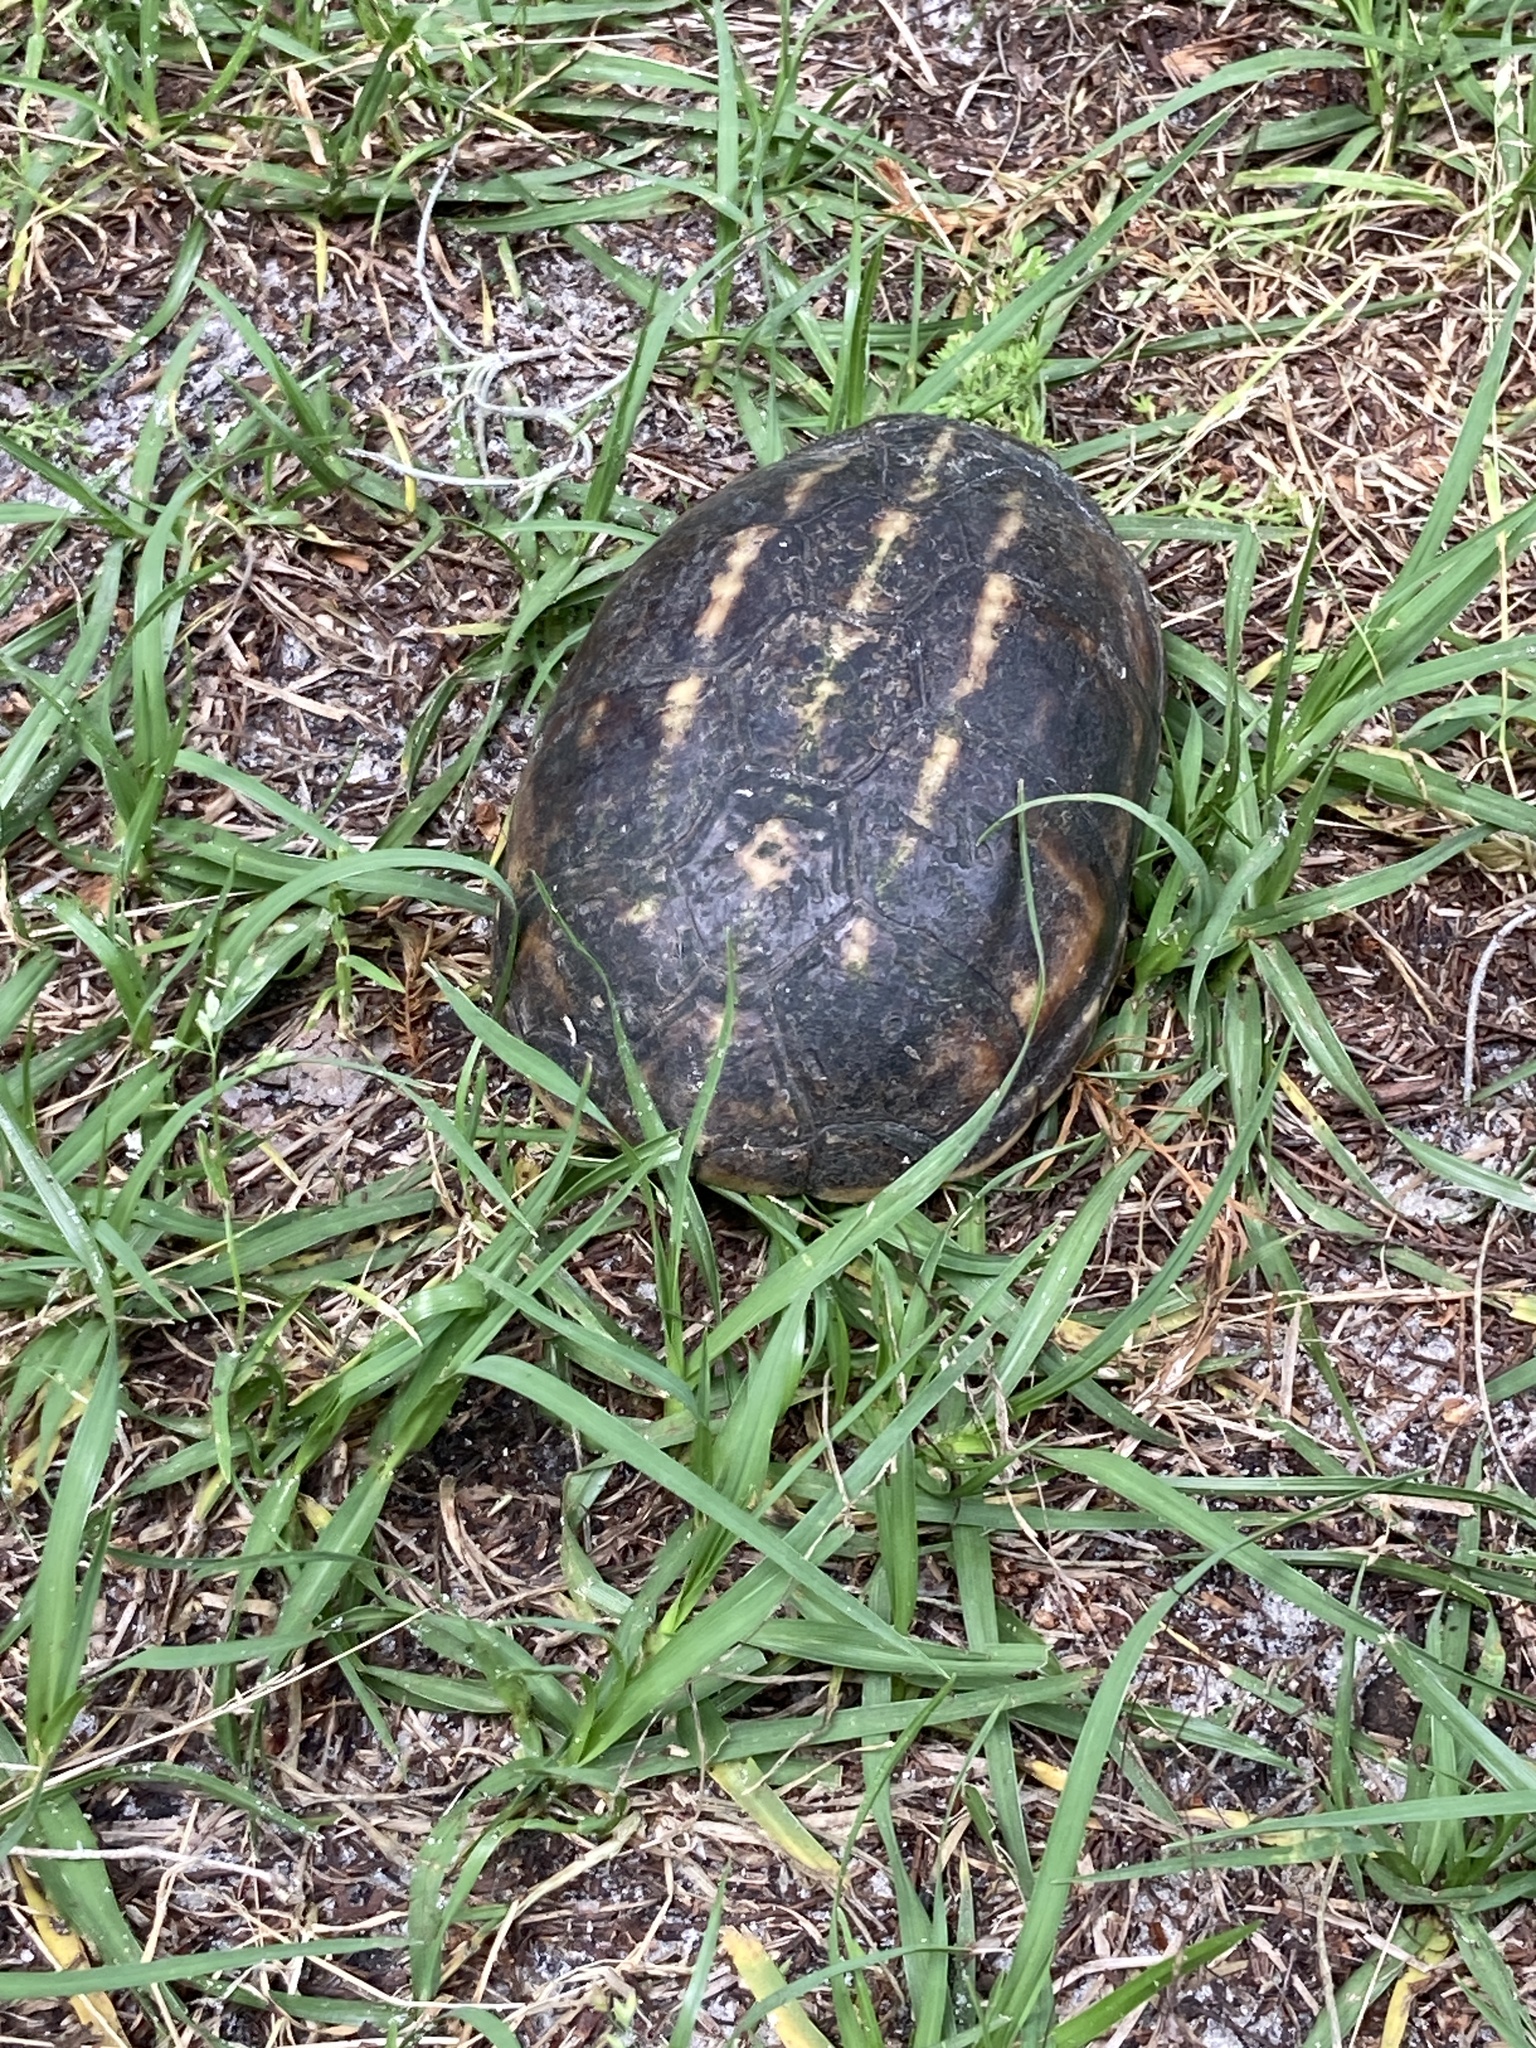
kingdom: Animalia
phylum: Chordata
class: Testudines
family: Kinosternidae
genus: Kinosternon
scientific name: Kinosternon baurii
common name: Striped mud turtle
